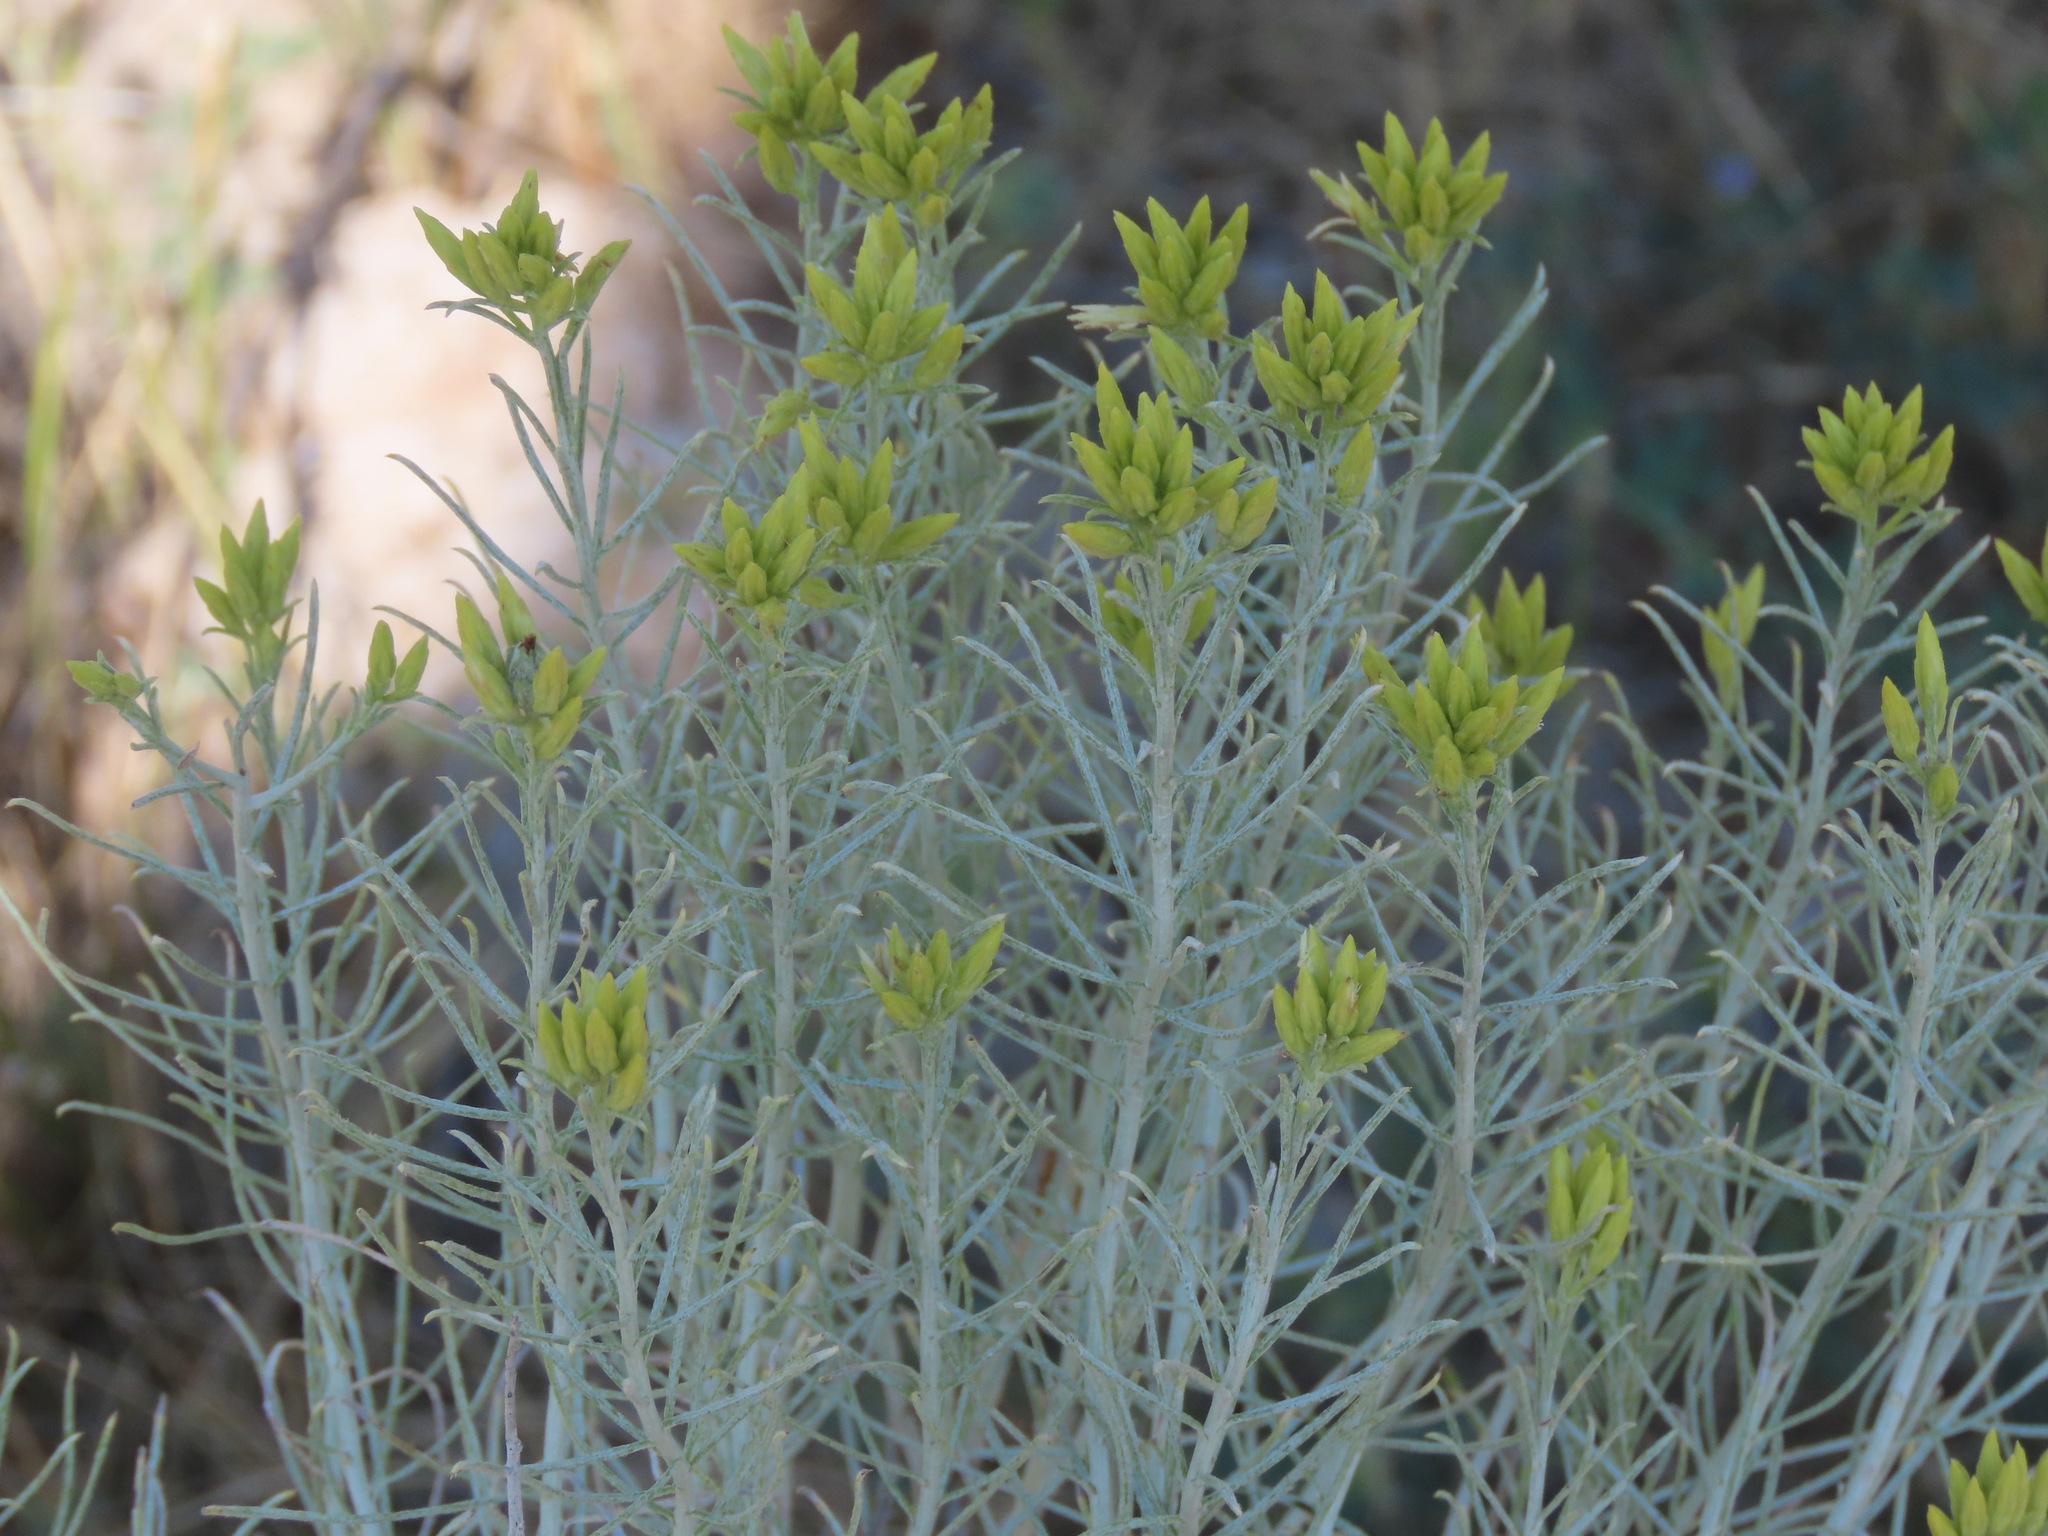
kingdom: Plantae
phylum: Tracheophyta
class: Magnoliopsida
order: Asterales
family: Asteraceae
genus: Ericameria
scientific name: Ericameria nauseosa
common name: Rubber rabbitbrush
